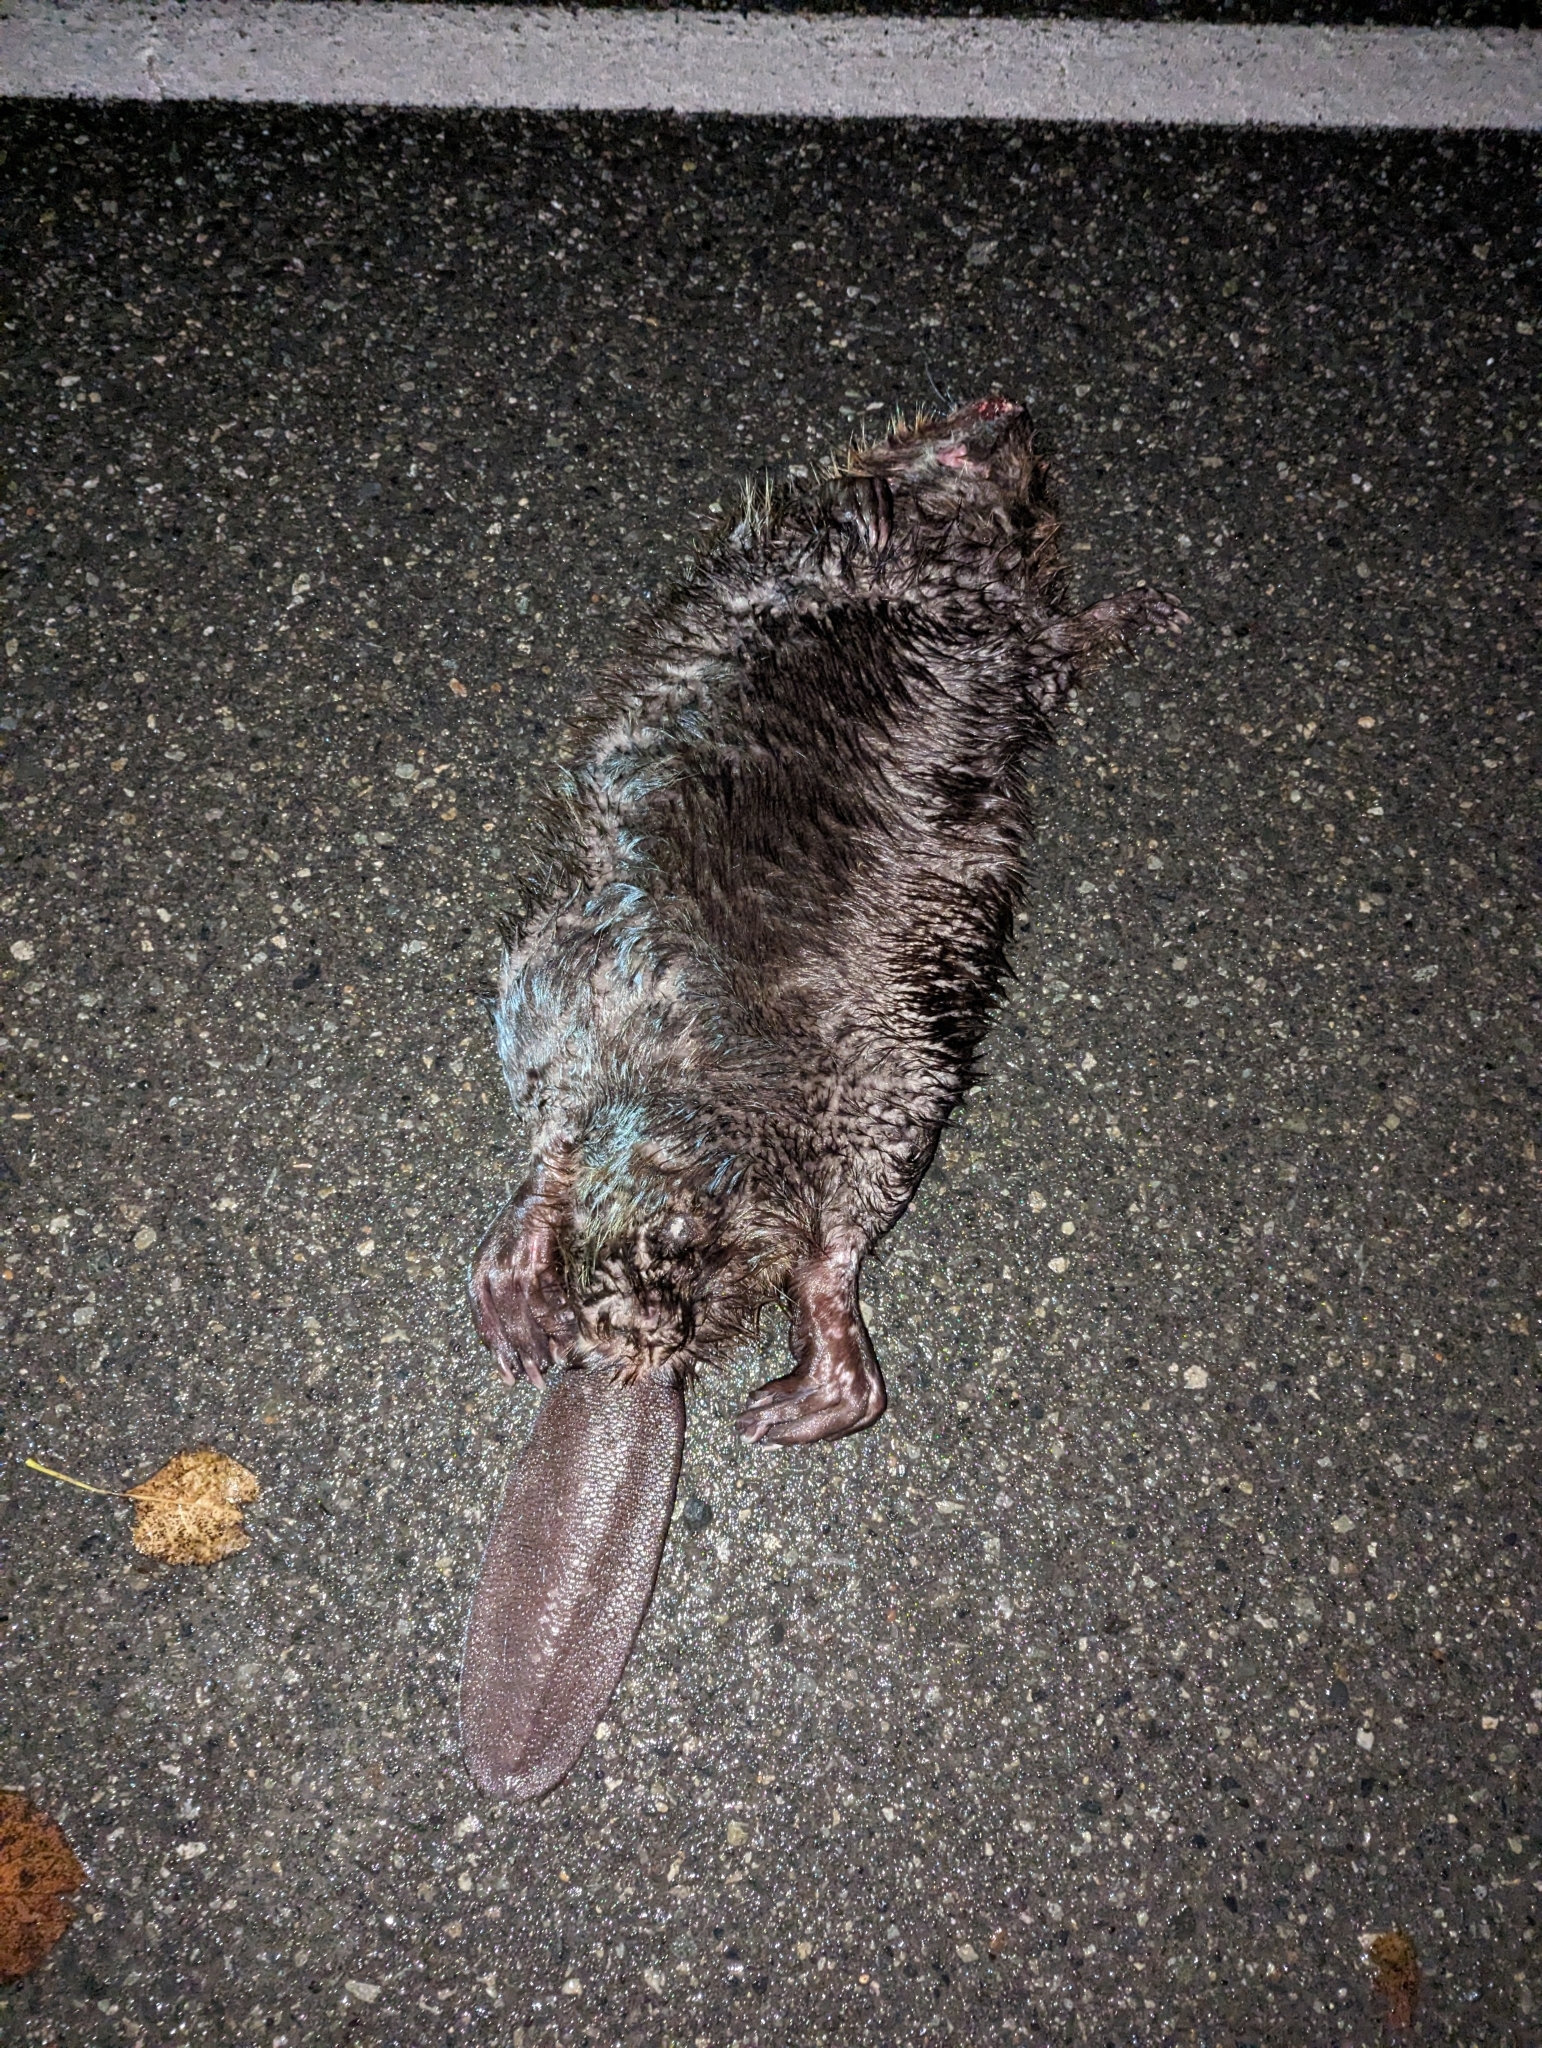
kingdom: Animalia
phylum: Chordata
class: Mammalia
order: Rodentia
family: Castoridae
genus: Castor
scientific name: Castor canadensis
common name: American beaver
